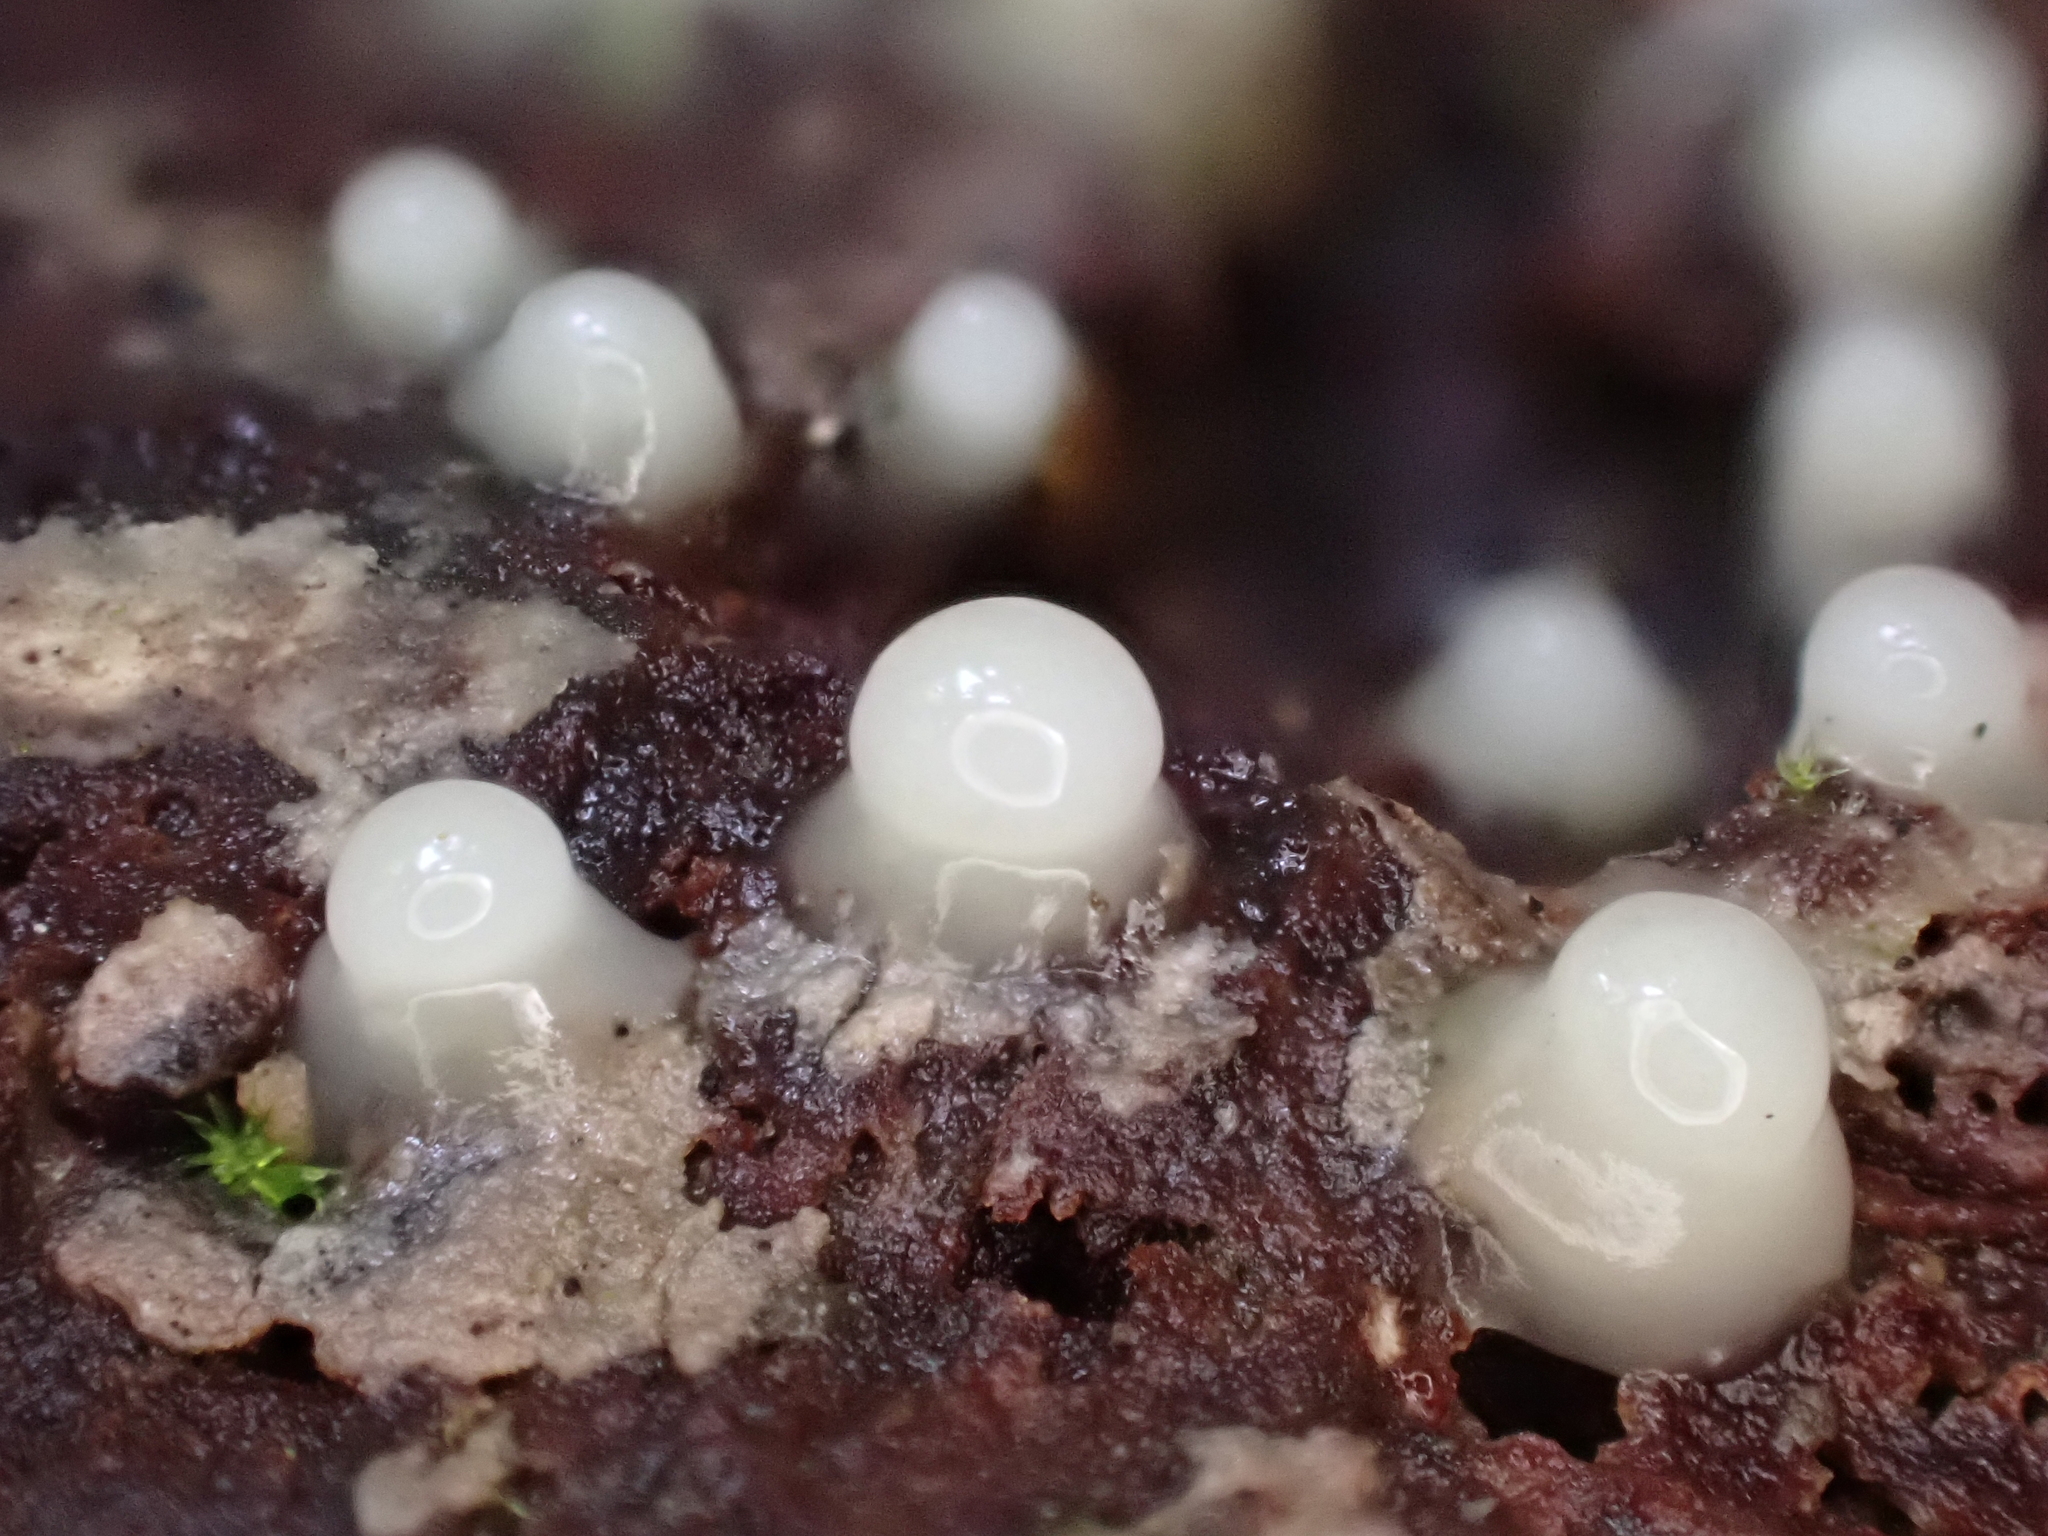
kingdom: Fungi
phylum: Basidiomycota
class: Atractiellomycetes
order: Atractiellales
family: Phleogenaceae
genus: Helicogloea
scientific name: Helicogloea compressa
